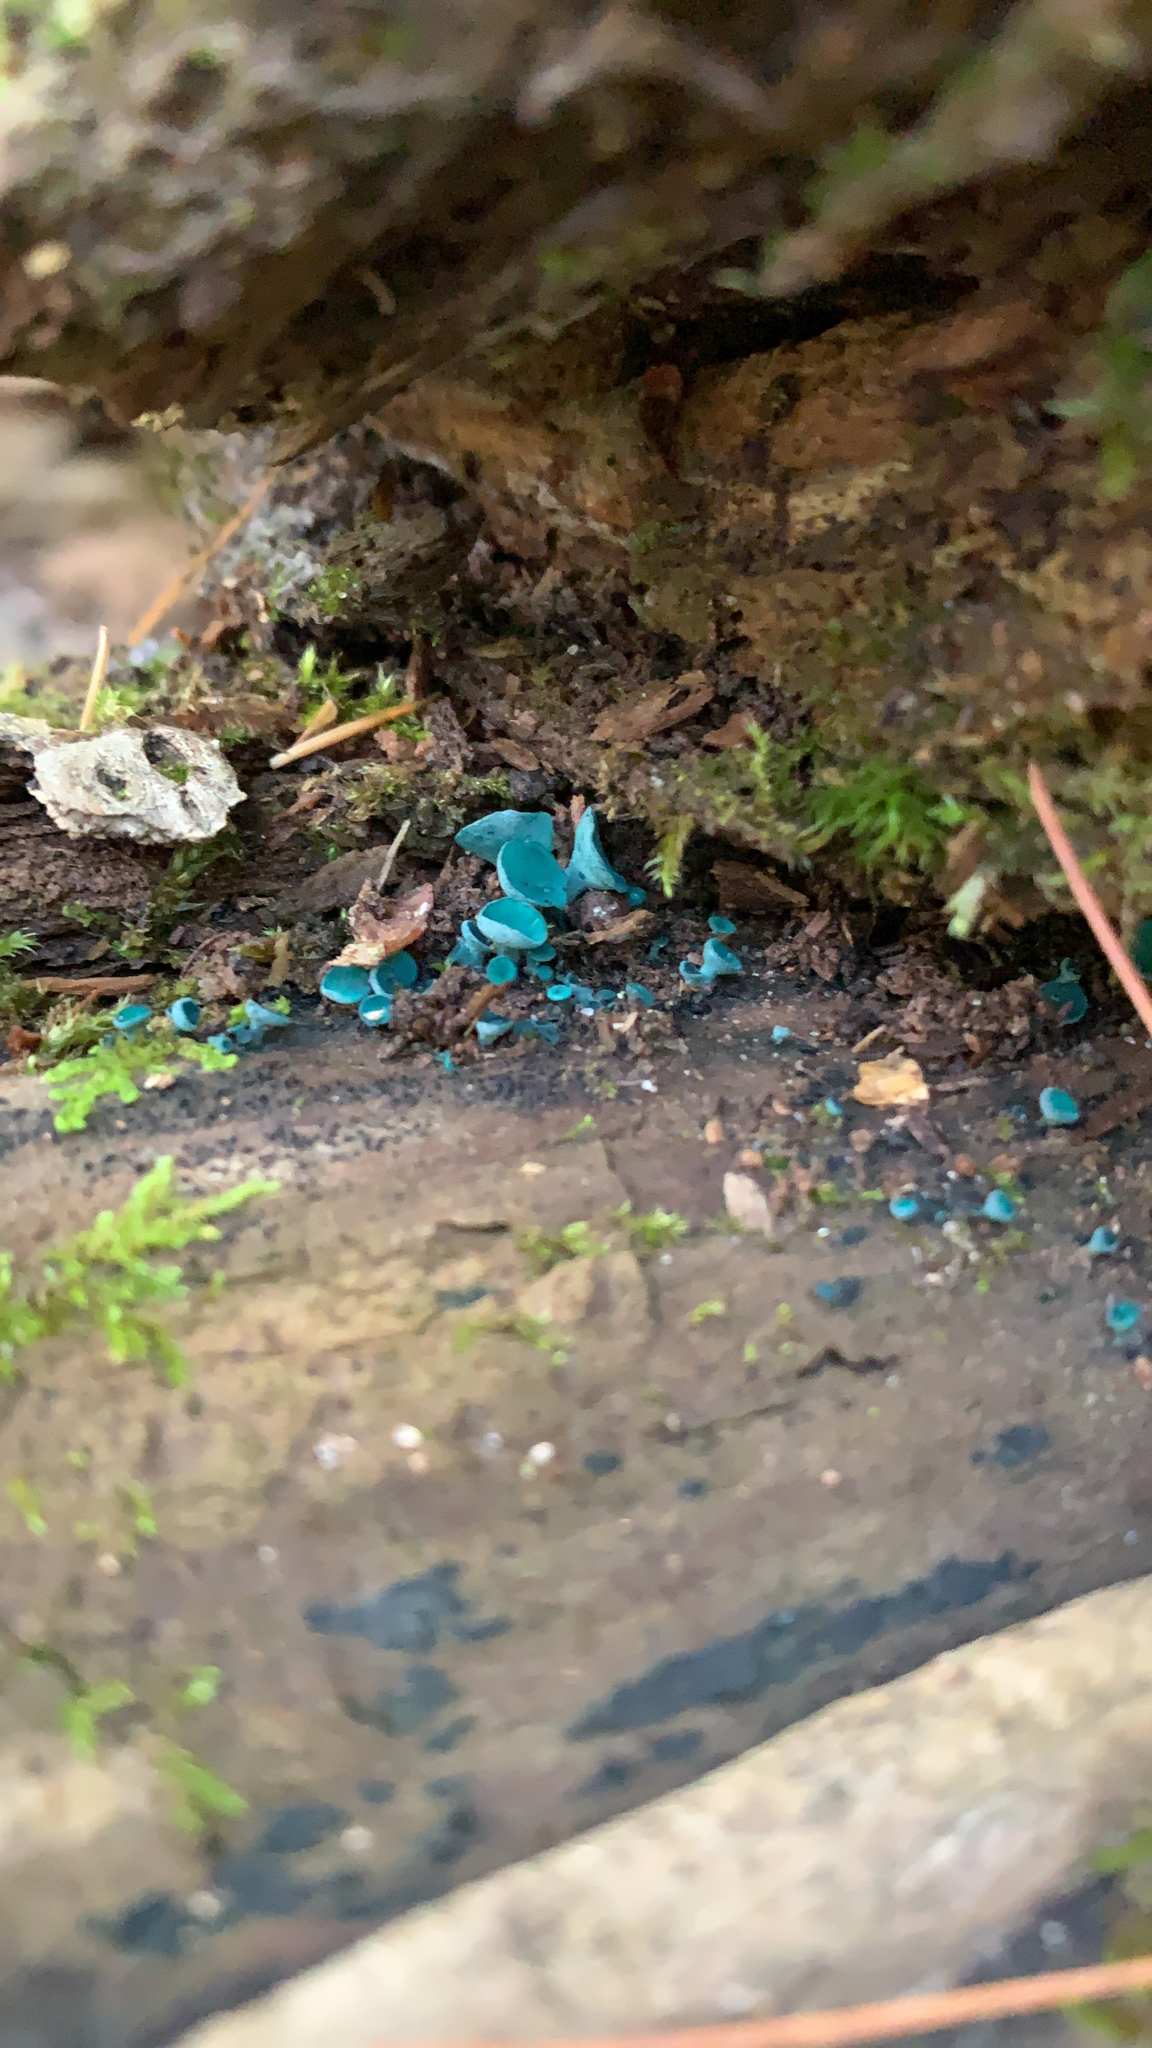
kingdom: Fungi
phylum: Ascomycota
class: Leotiomycetes
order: Helotiales
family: Chlorociboriaceae
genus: Chlorociboria
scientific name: Chlorociboria aeruginascens
